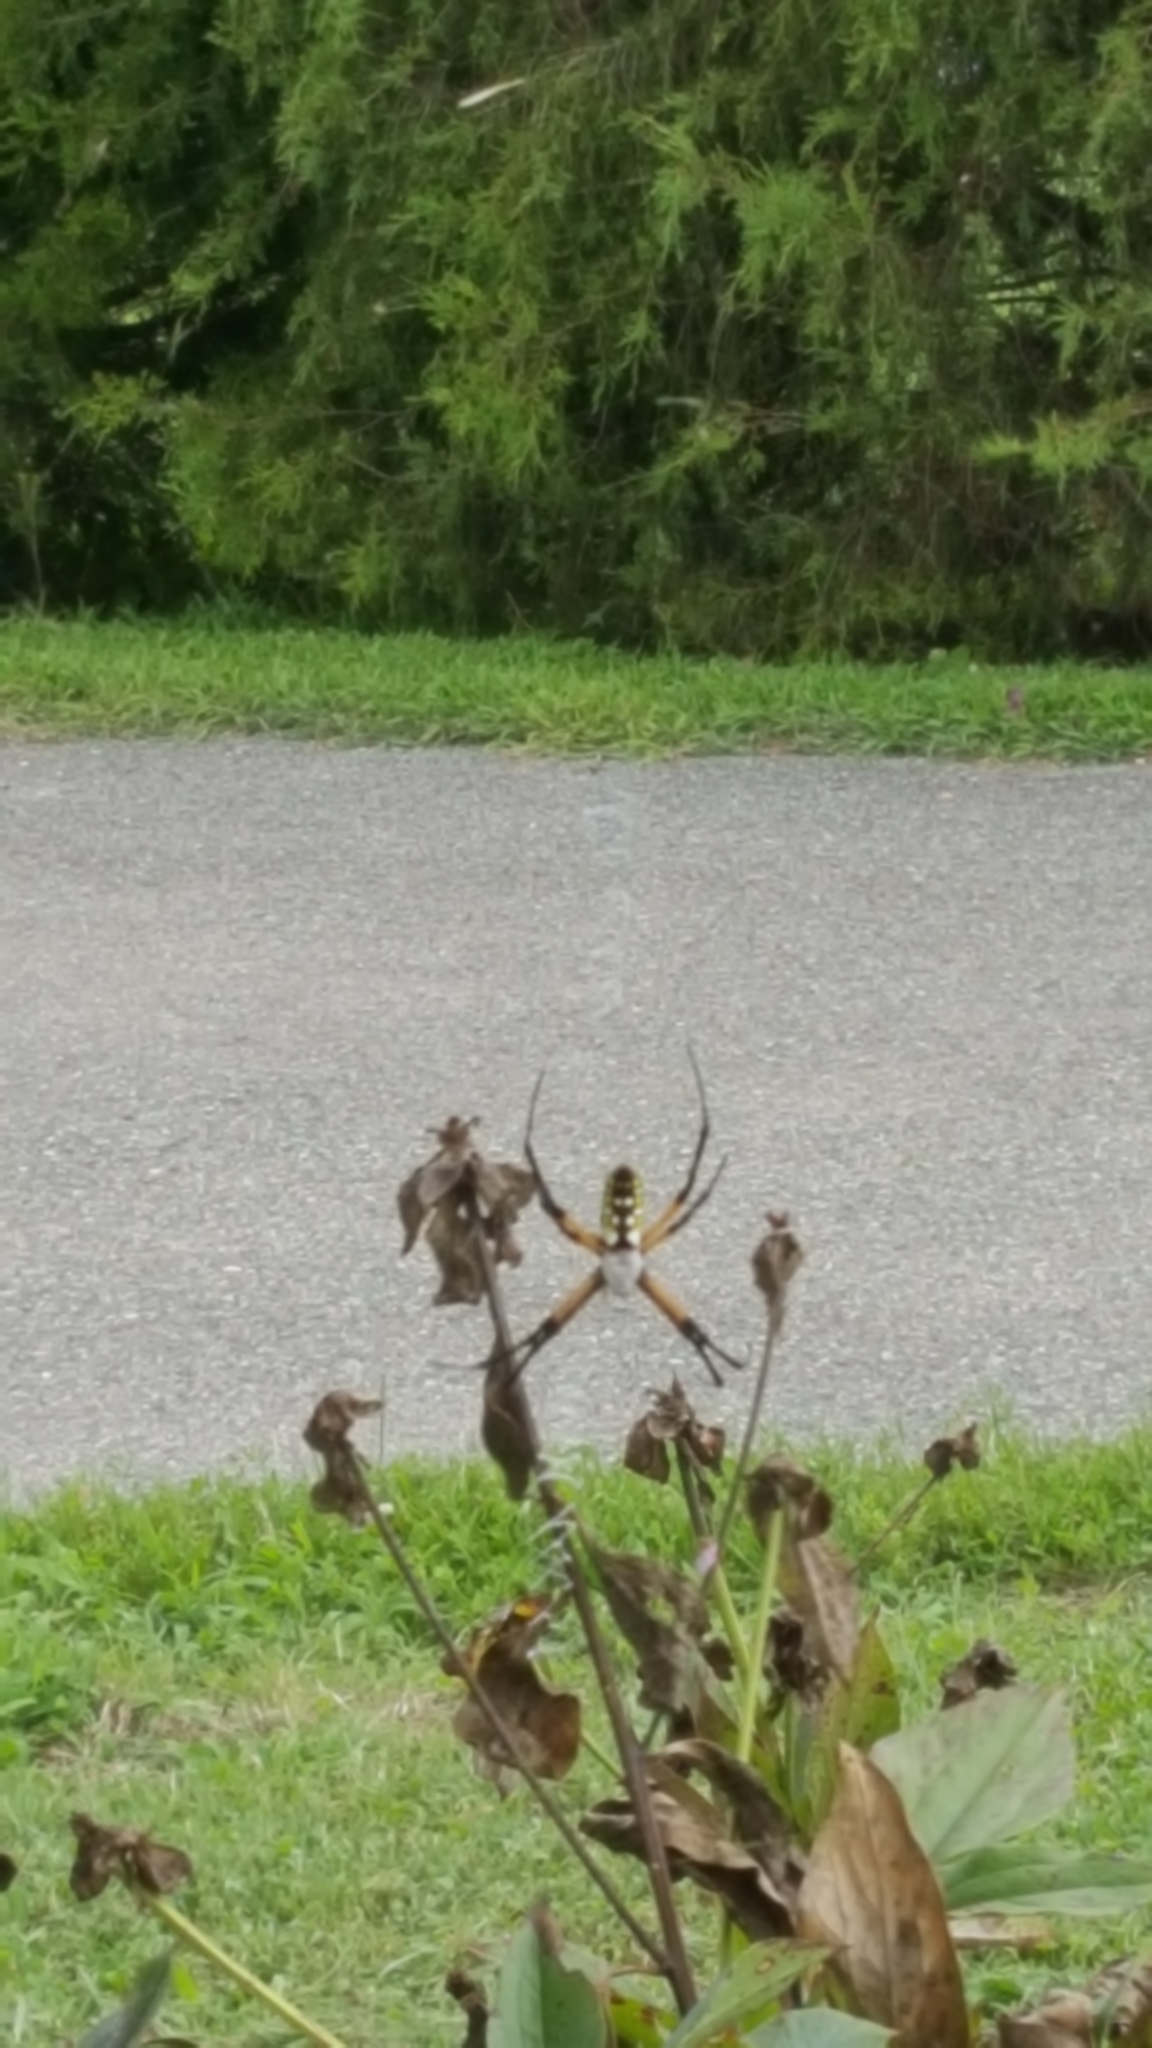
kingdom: Animalia
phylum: Arthropoda
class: Arachnida
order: Araneae
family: Araneidae
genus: Argiope
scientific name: Argiope aurantia
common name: Orb weavers
